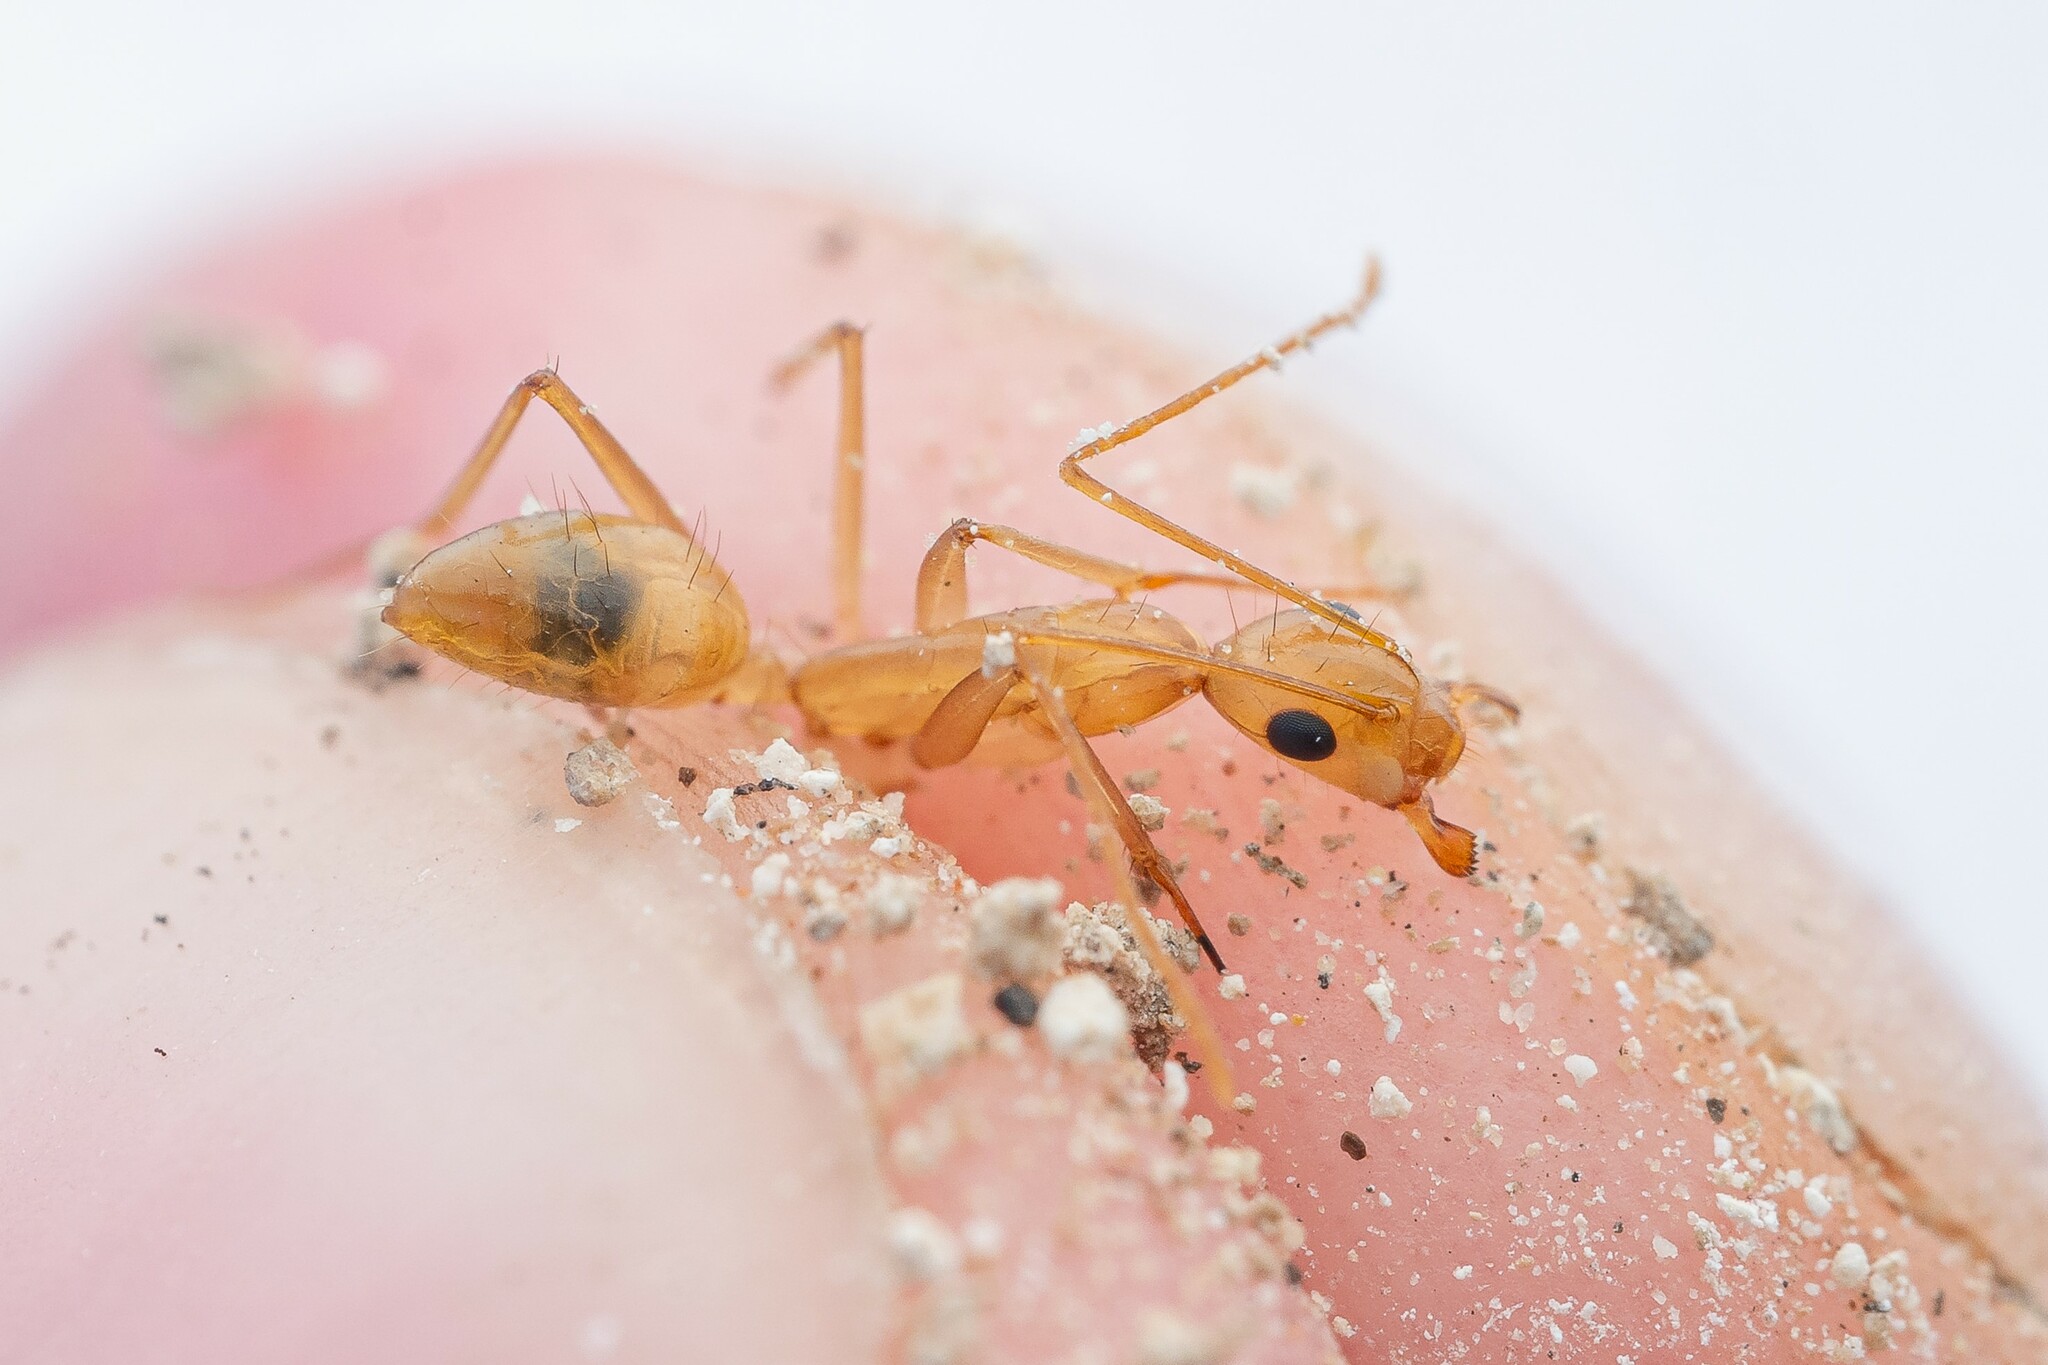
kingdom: Animalia
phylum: Arthropoda
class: Insecta
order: Hymenoptera
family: Formicidae
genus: Camponotus
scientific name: Camponotus festinatus
